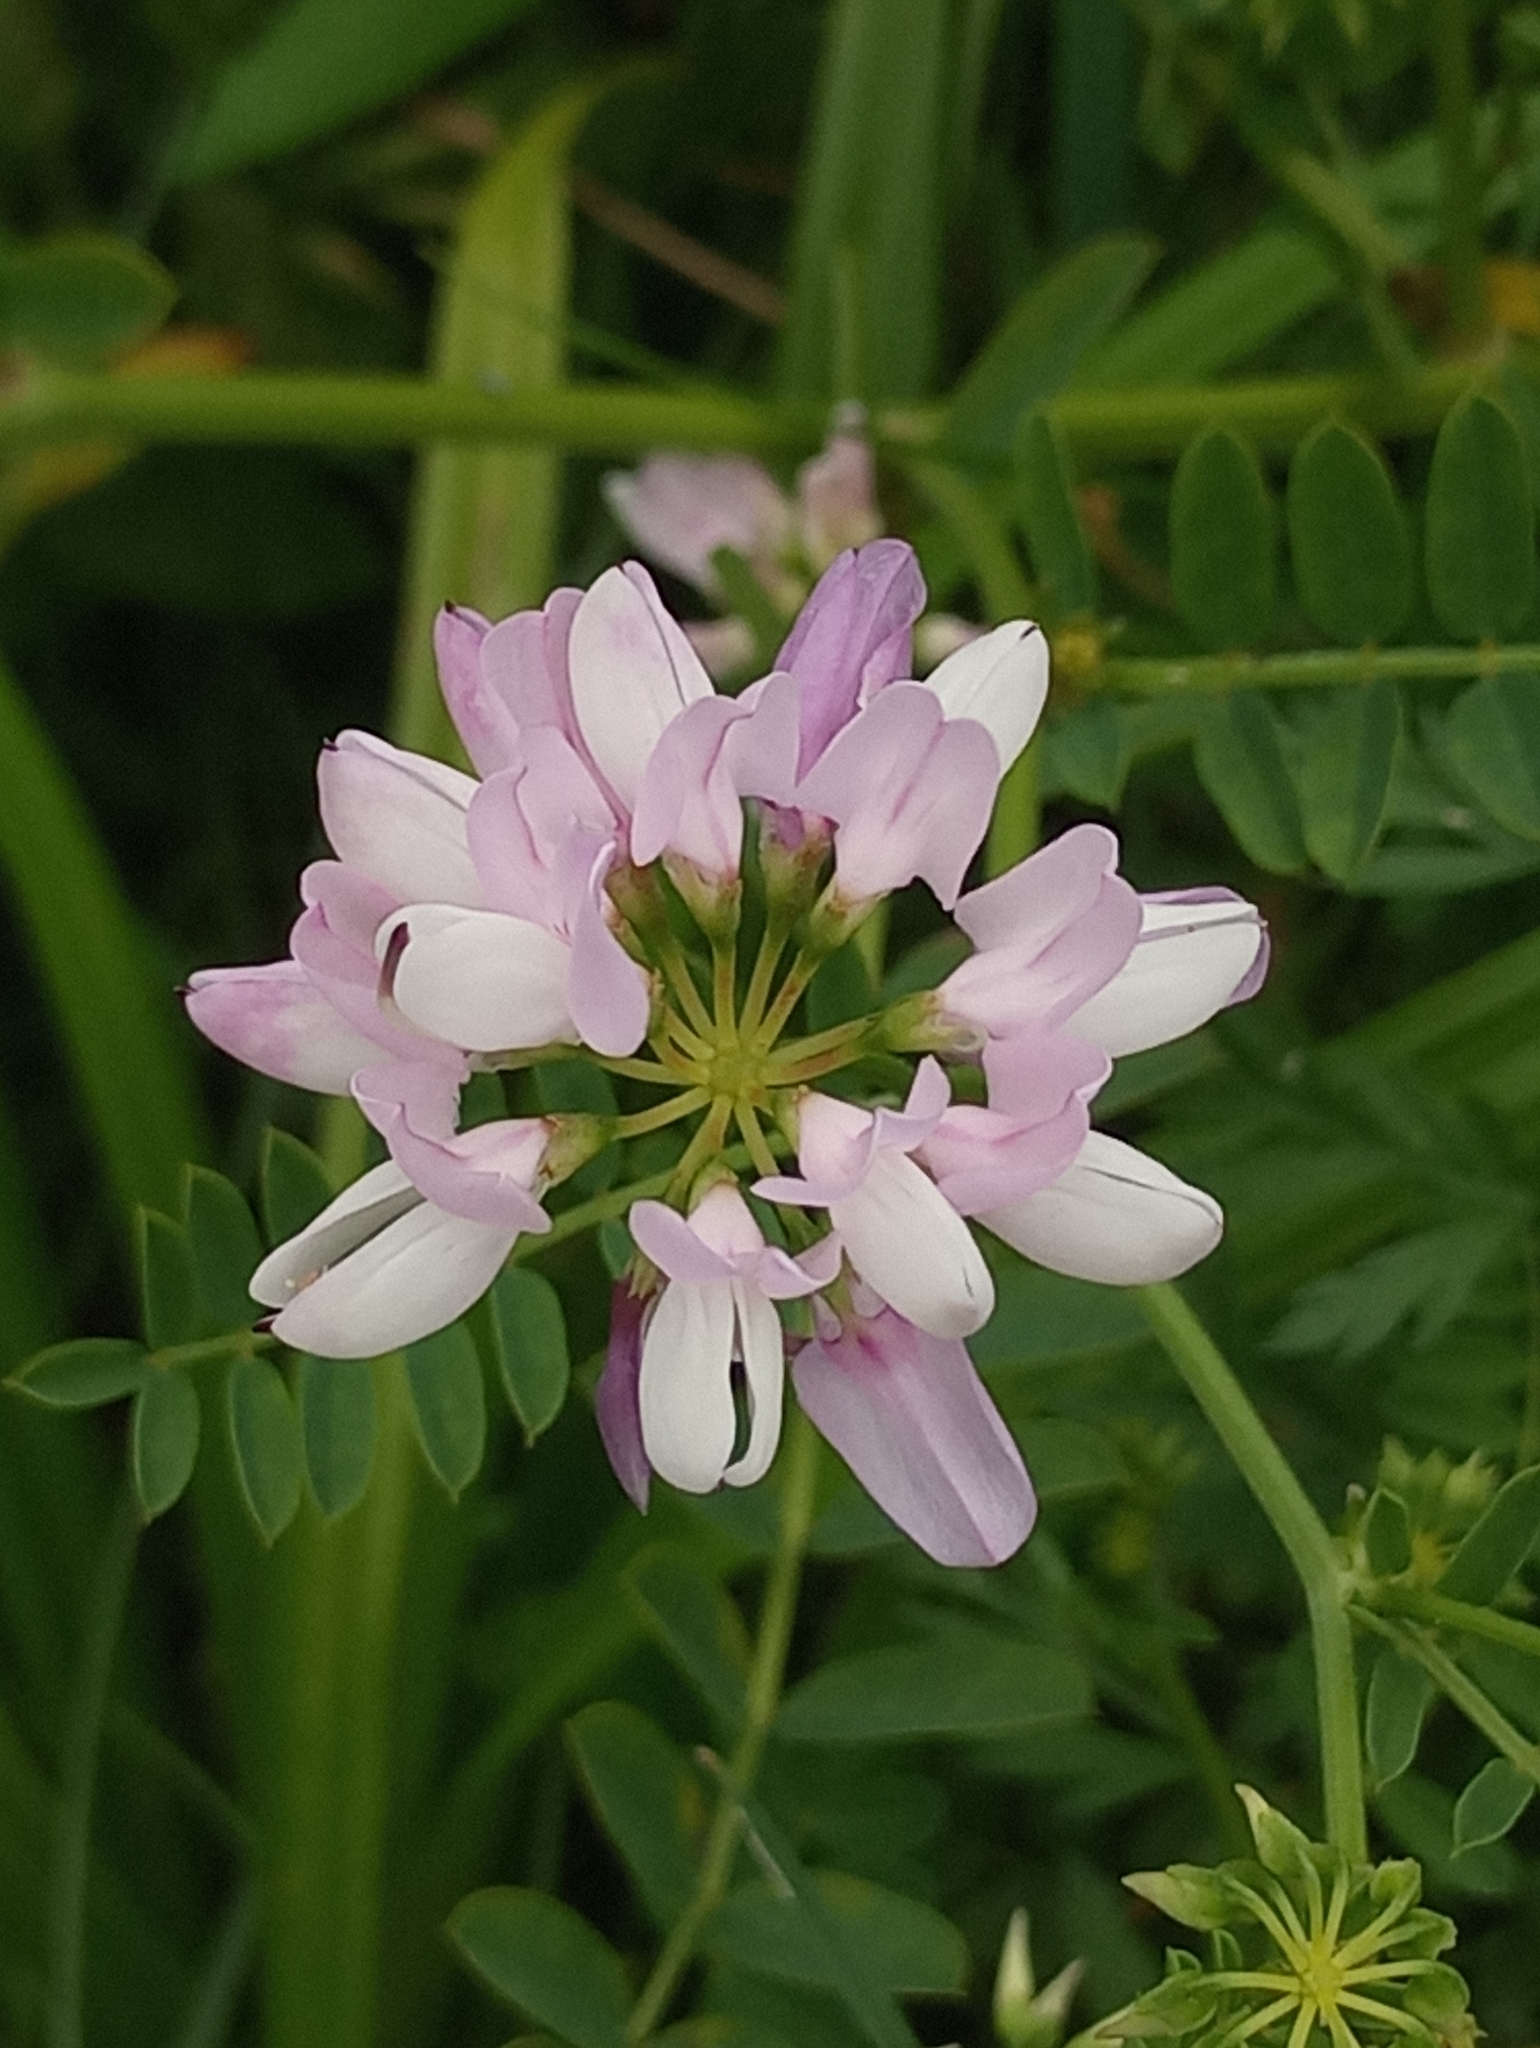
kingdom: Plantae
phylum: Tracheophyta
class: Magnoliopsida
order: Fabales
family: Fabaceae
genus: Coronilla
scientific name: Coronilla varia
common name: Crownvetch
